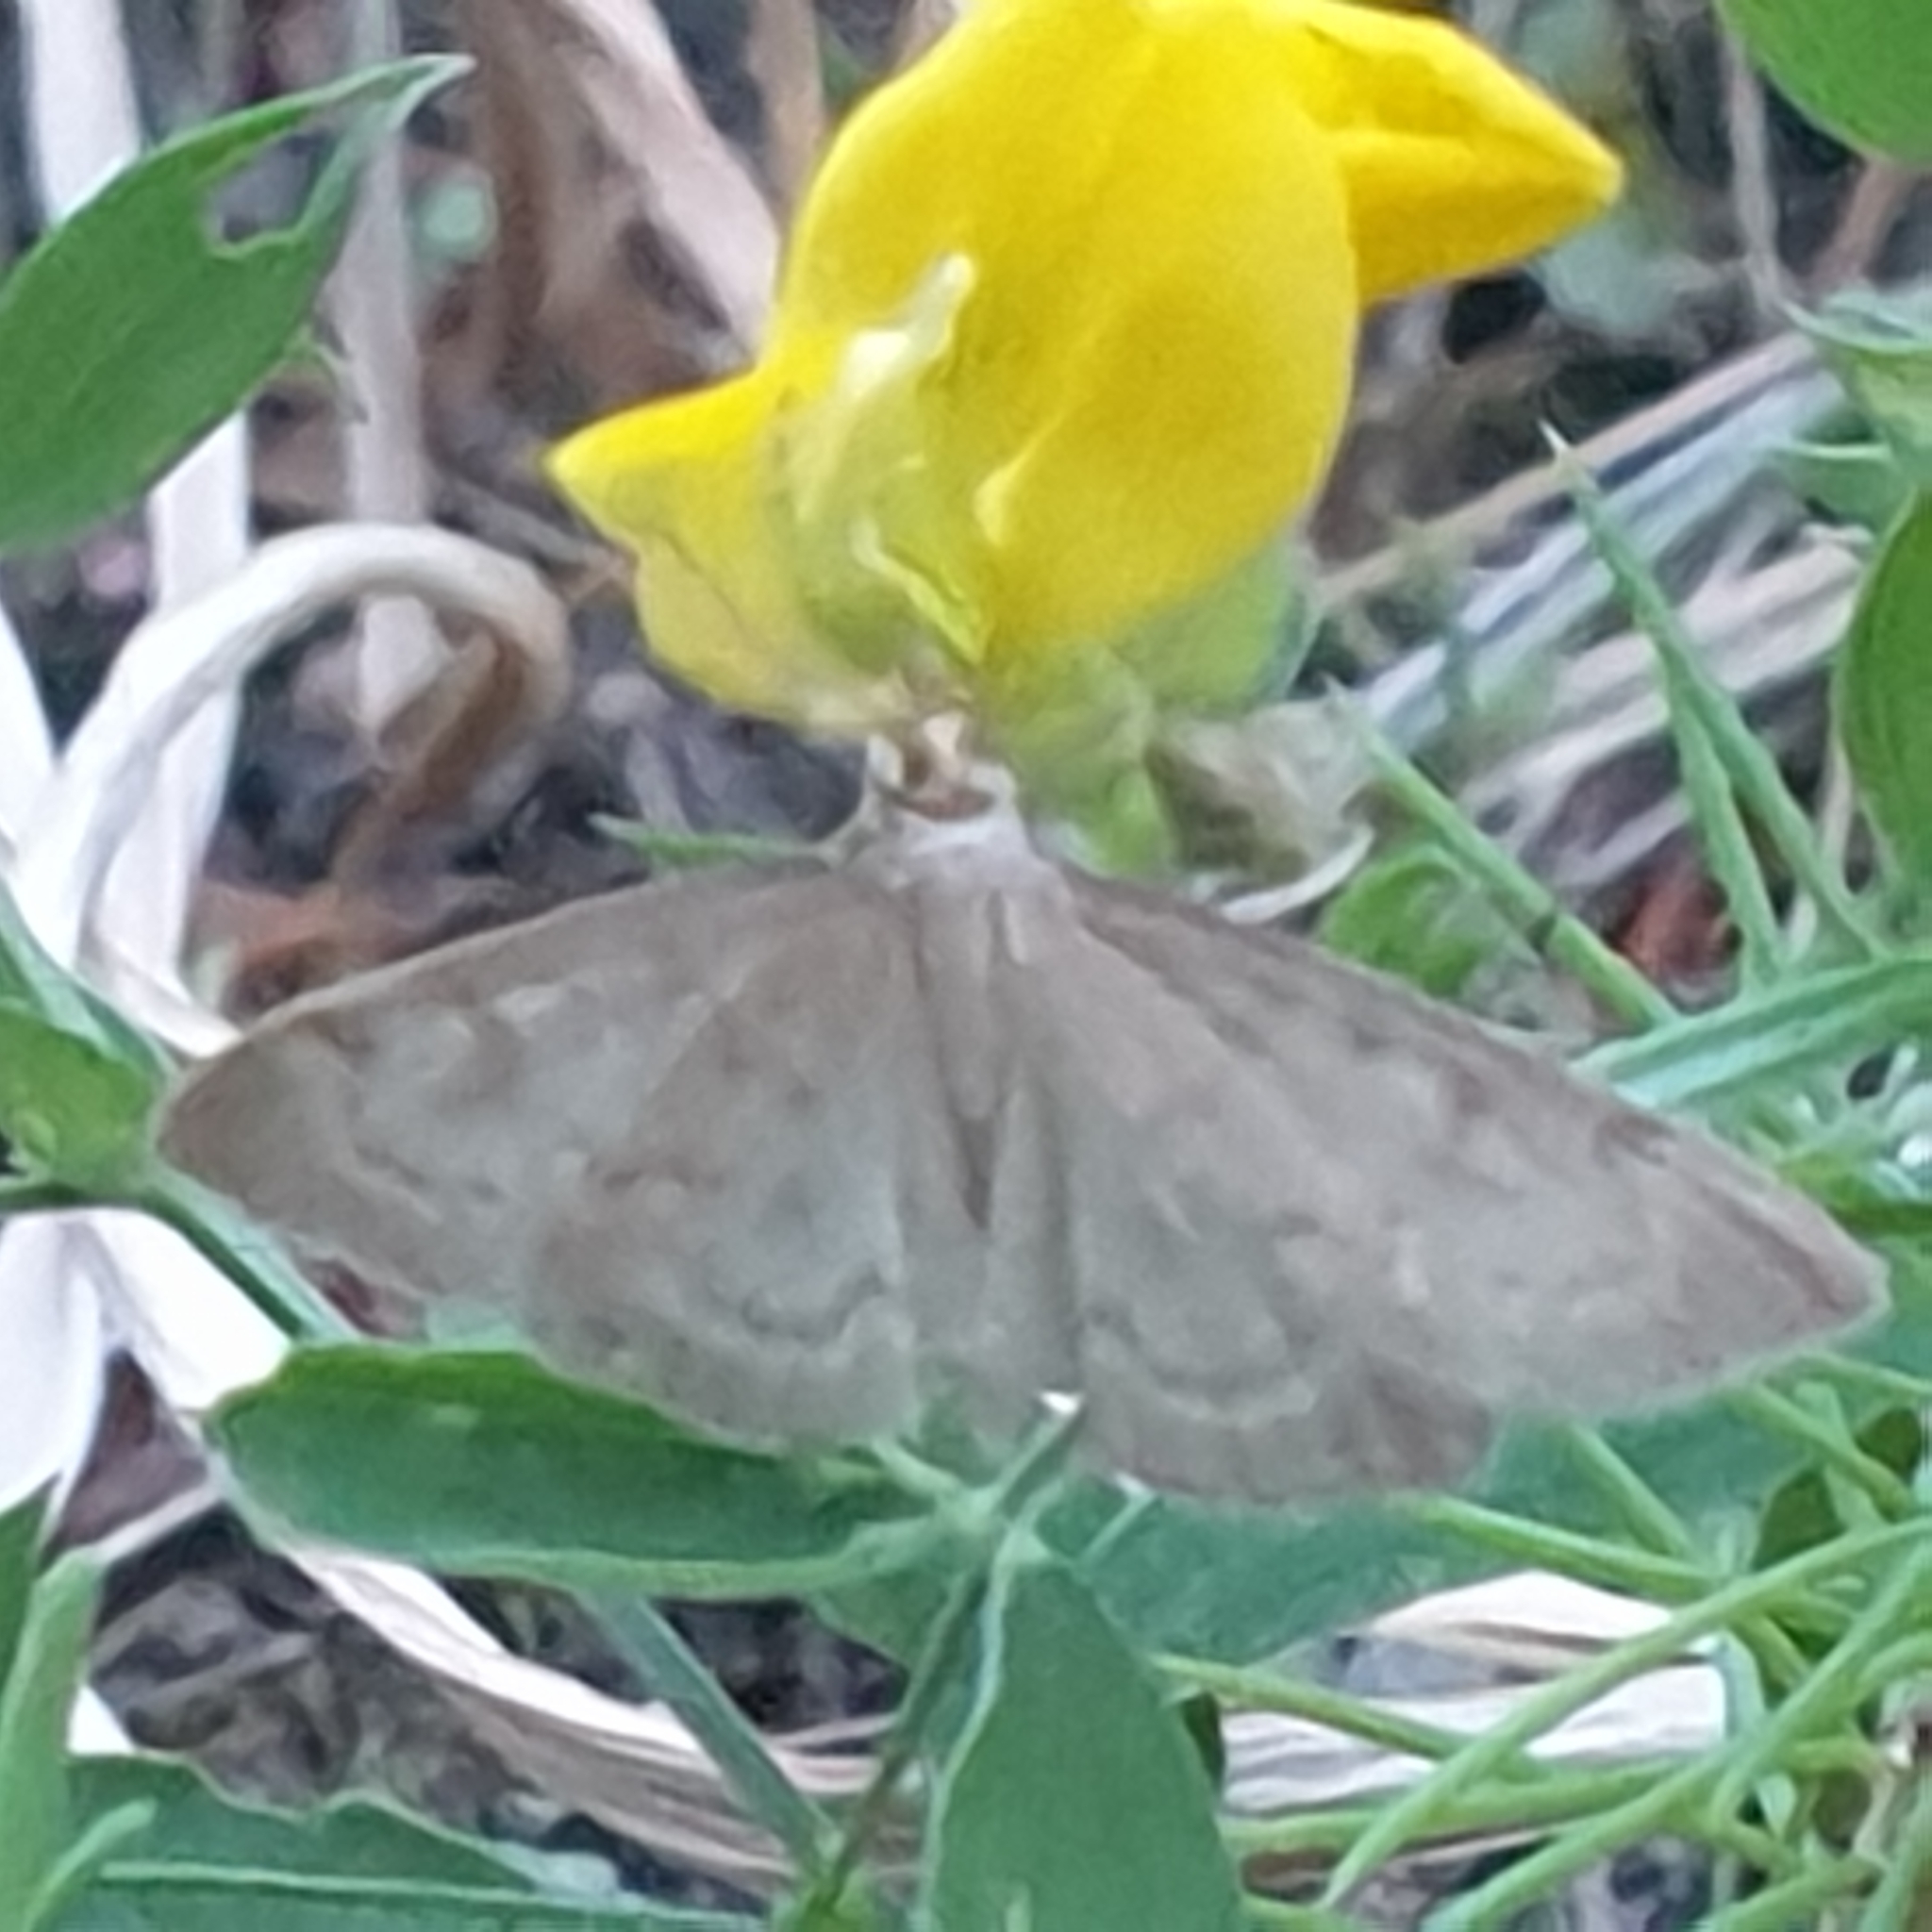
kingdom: Animalia
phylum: Arthropoda
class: Insecta
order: Lepidoptera
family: Crambidae
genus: Anania
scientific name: Anania fuscalis
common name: Cinerous pearl
